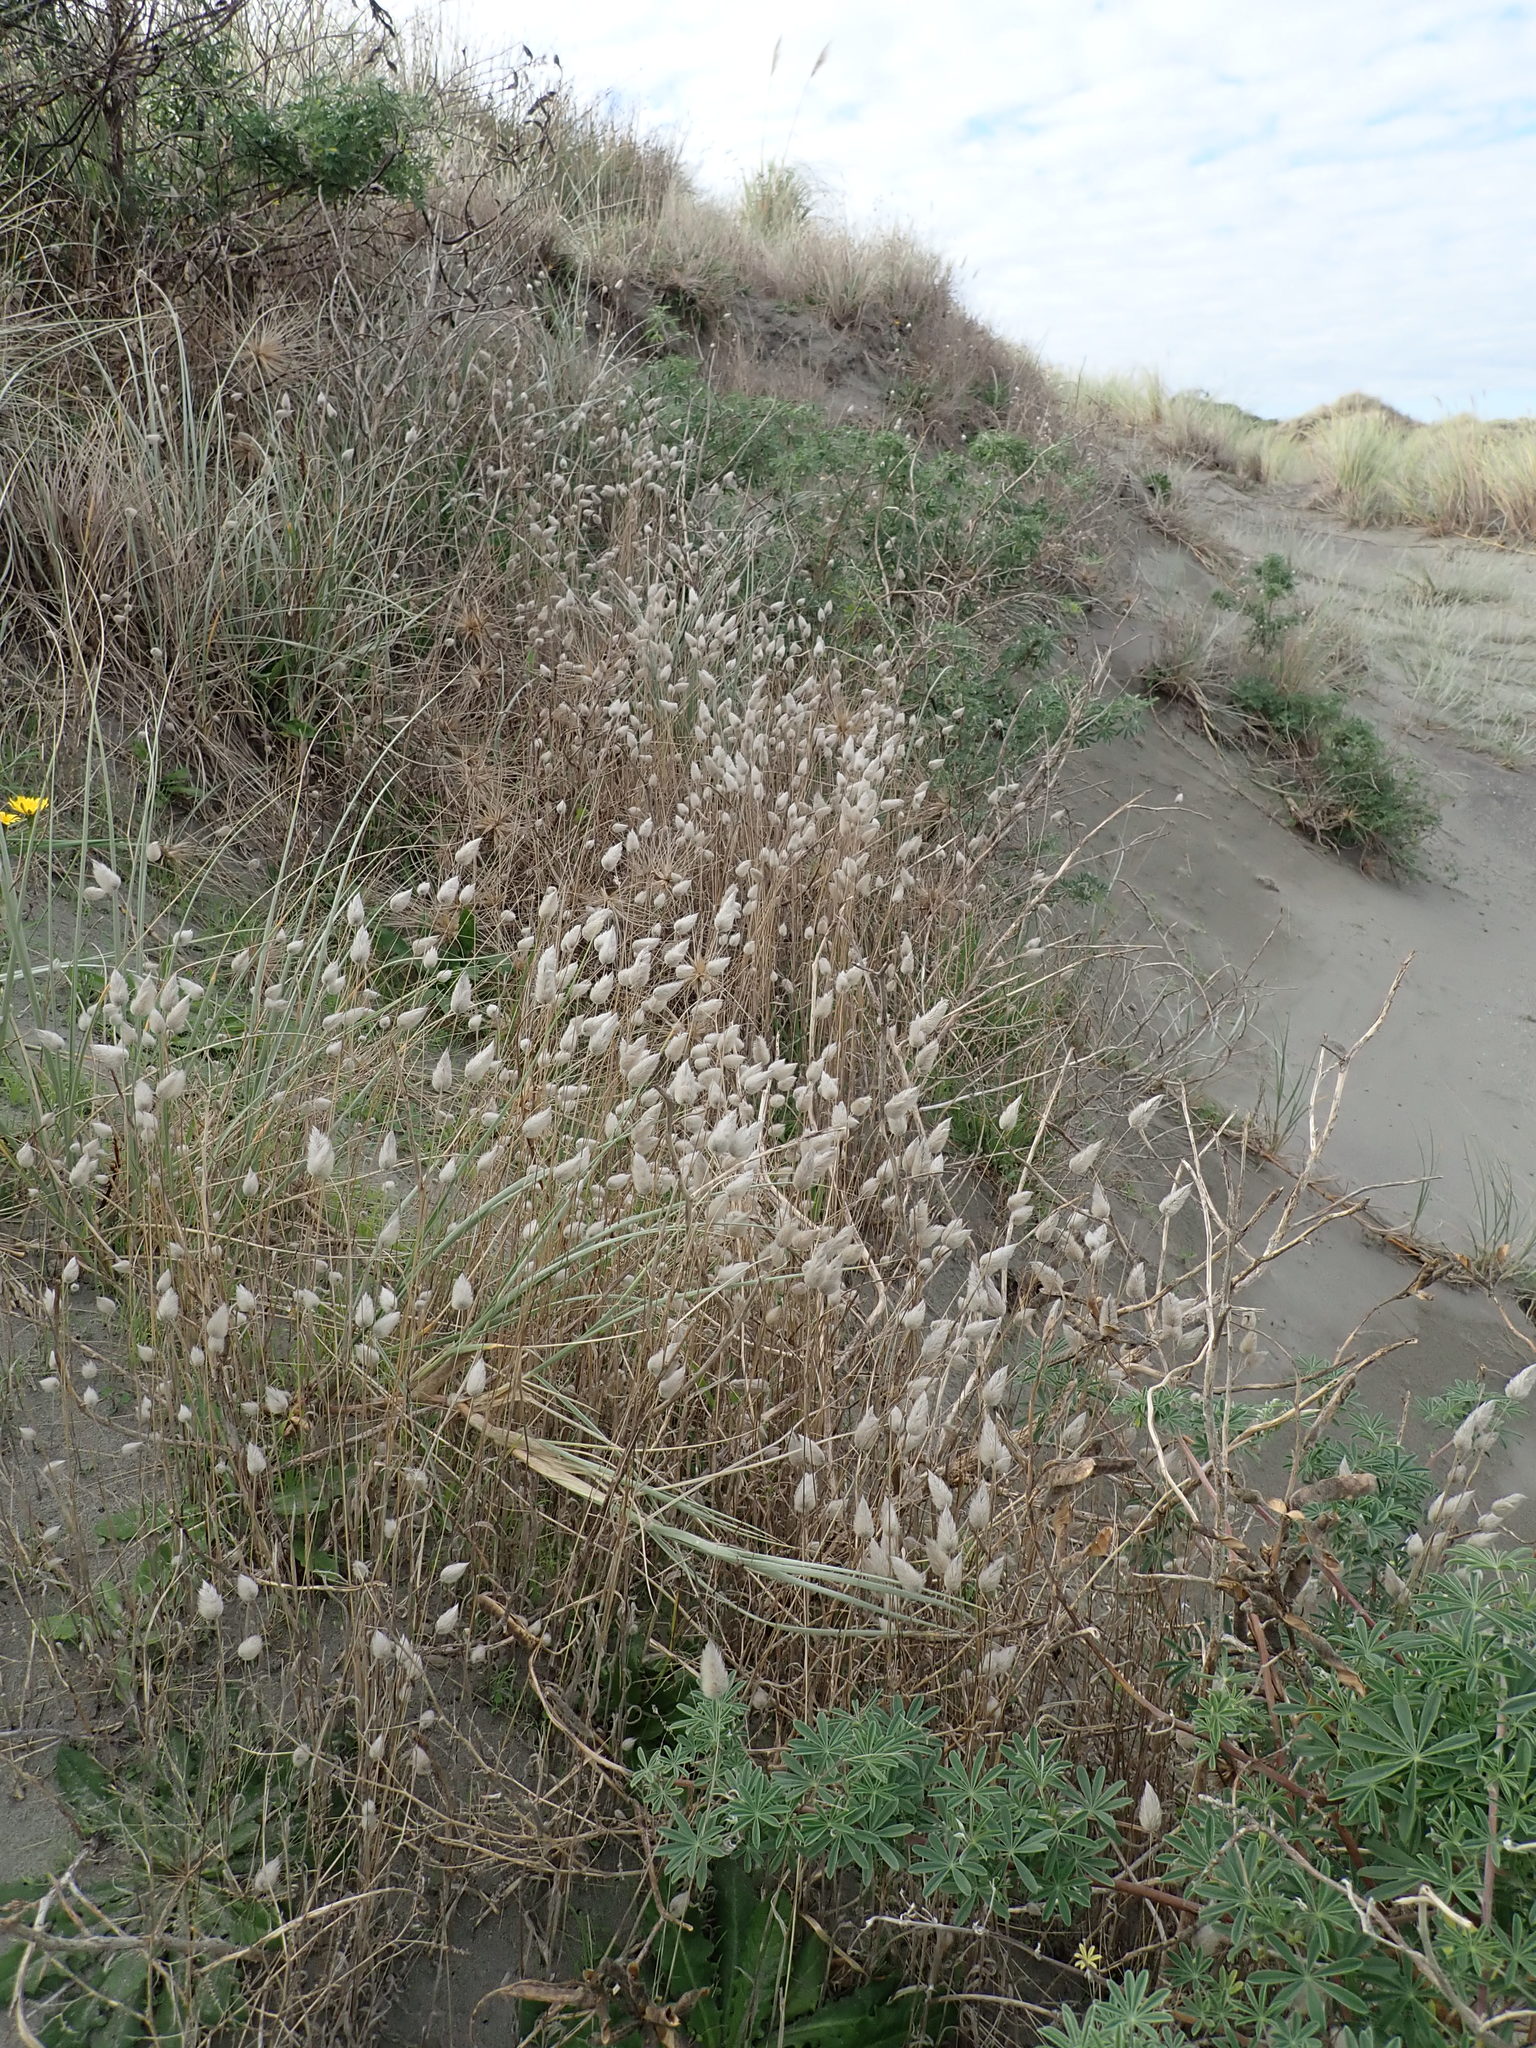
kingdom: Plantae
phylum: Tracheophyta
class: Liliopsida
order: Poales
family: Poaceae
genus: Lagurus
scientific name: Lagurus ovatus
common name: Hare's-tail
